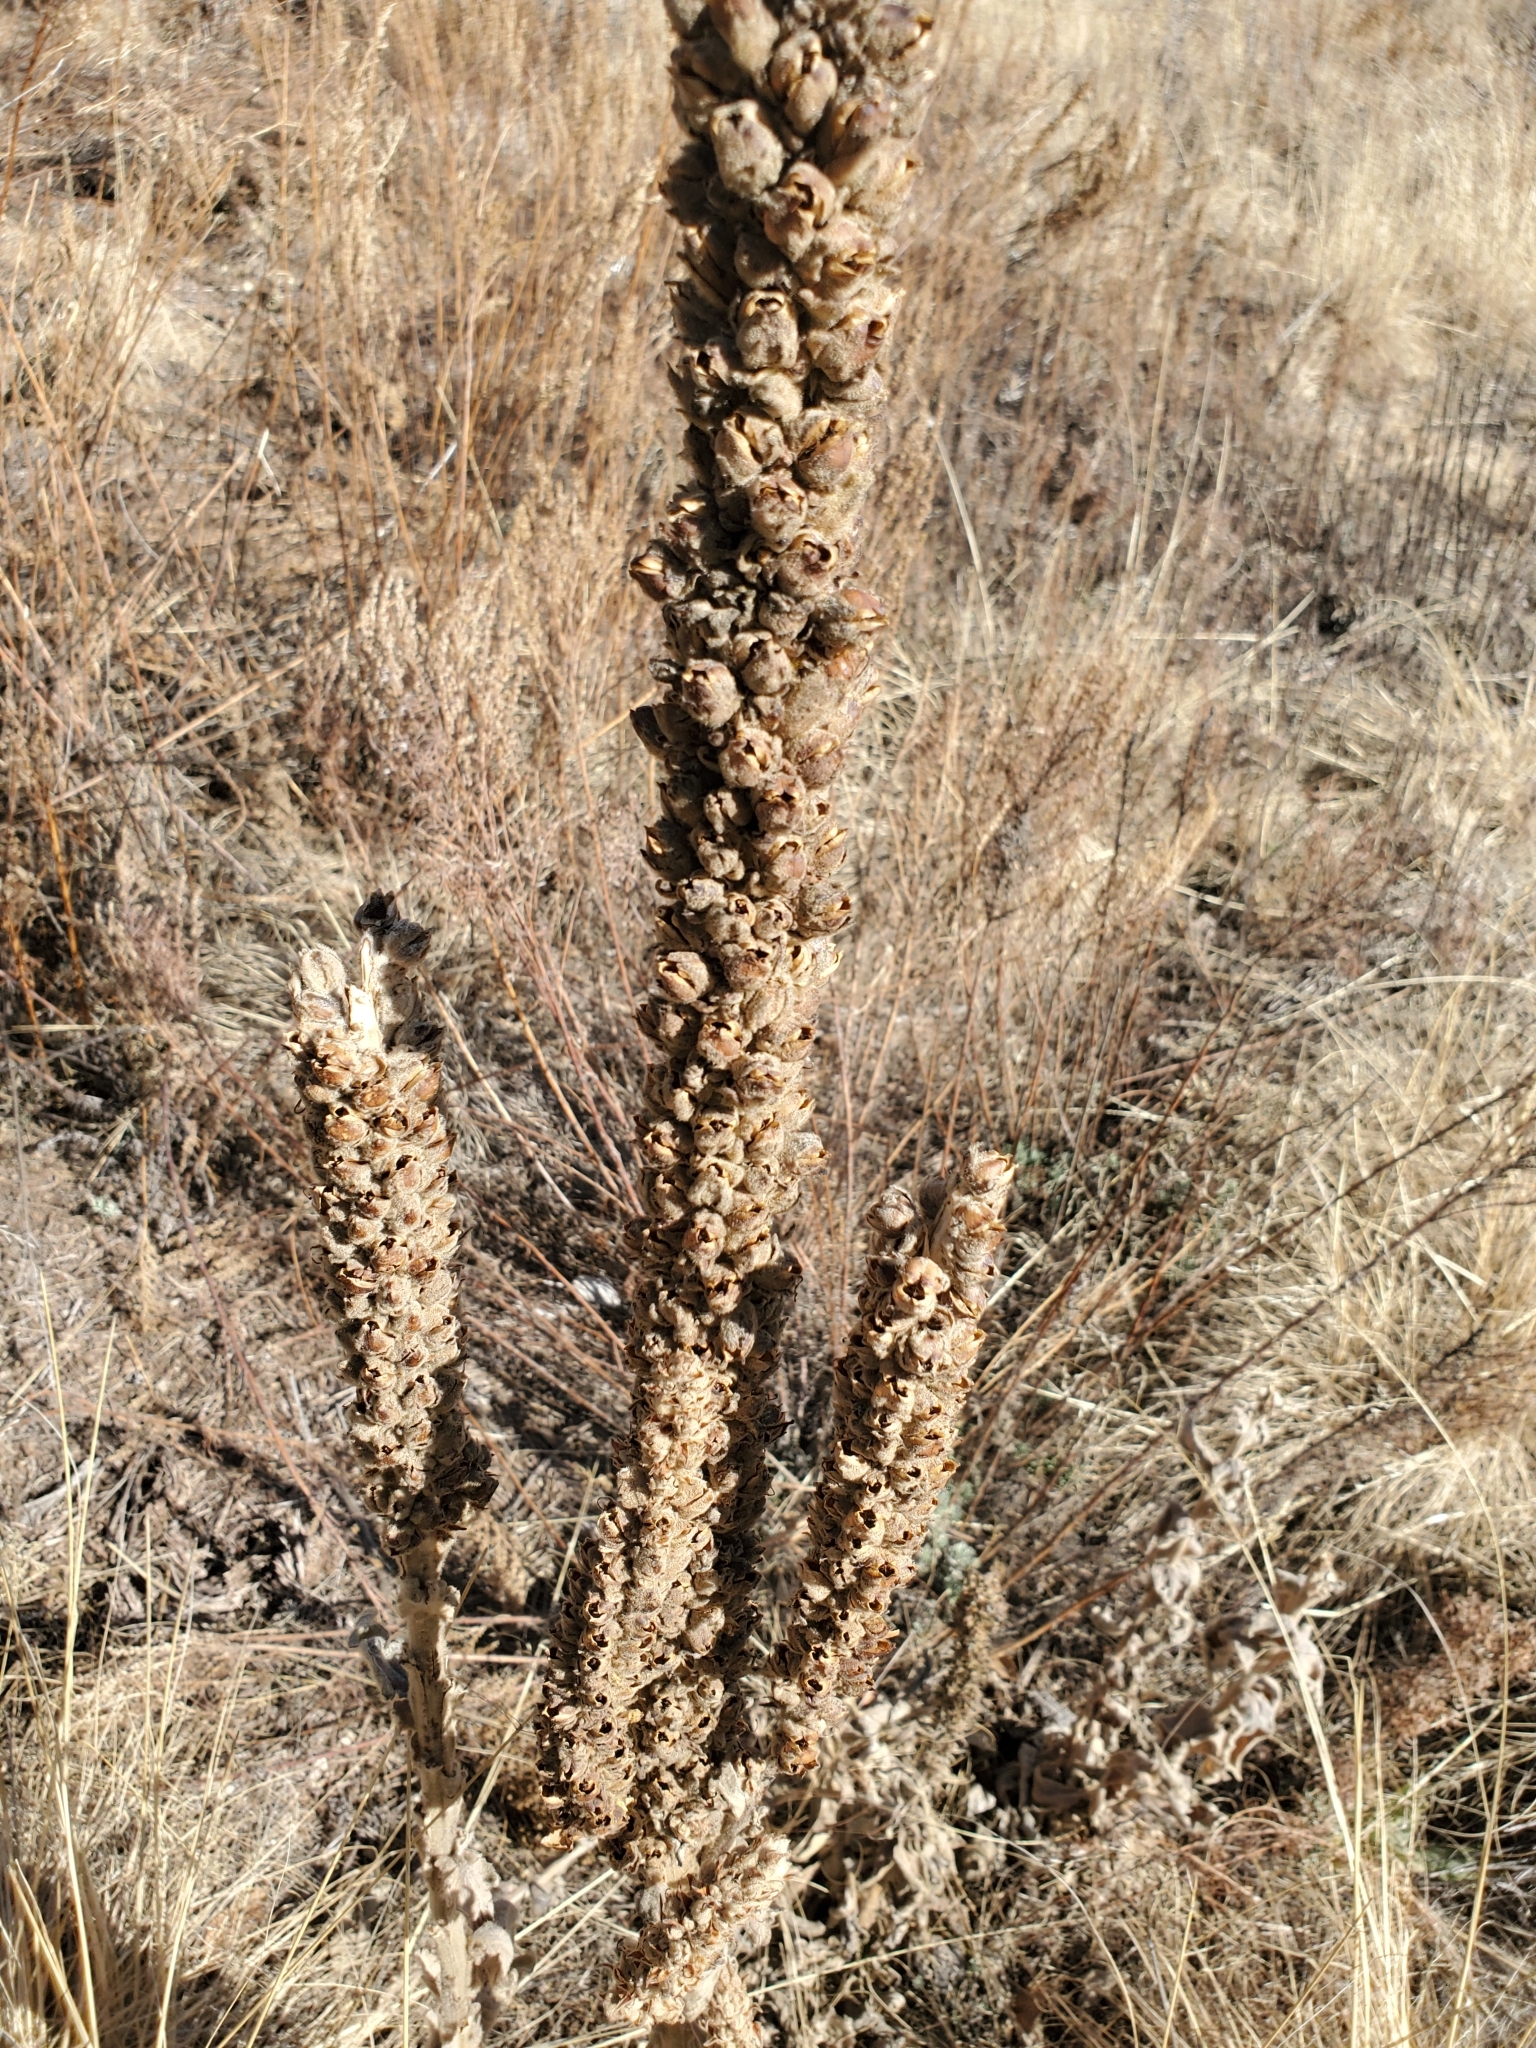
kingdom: Plantae
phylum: Tracheophyta
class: Magnoliopsida
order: Lamiales
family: Scrophulariaceae
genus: Verbascum
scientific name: Verbascum thapsus
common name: Common mullein
